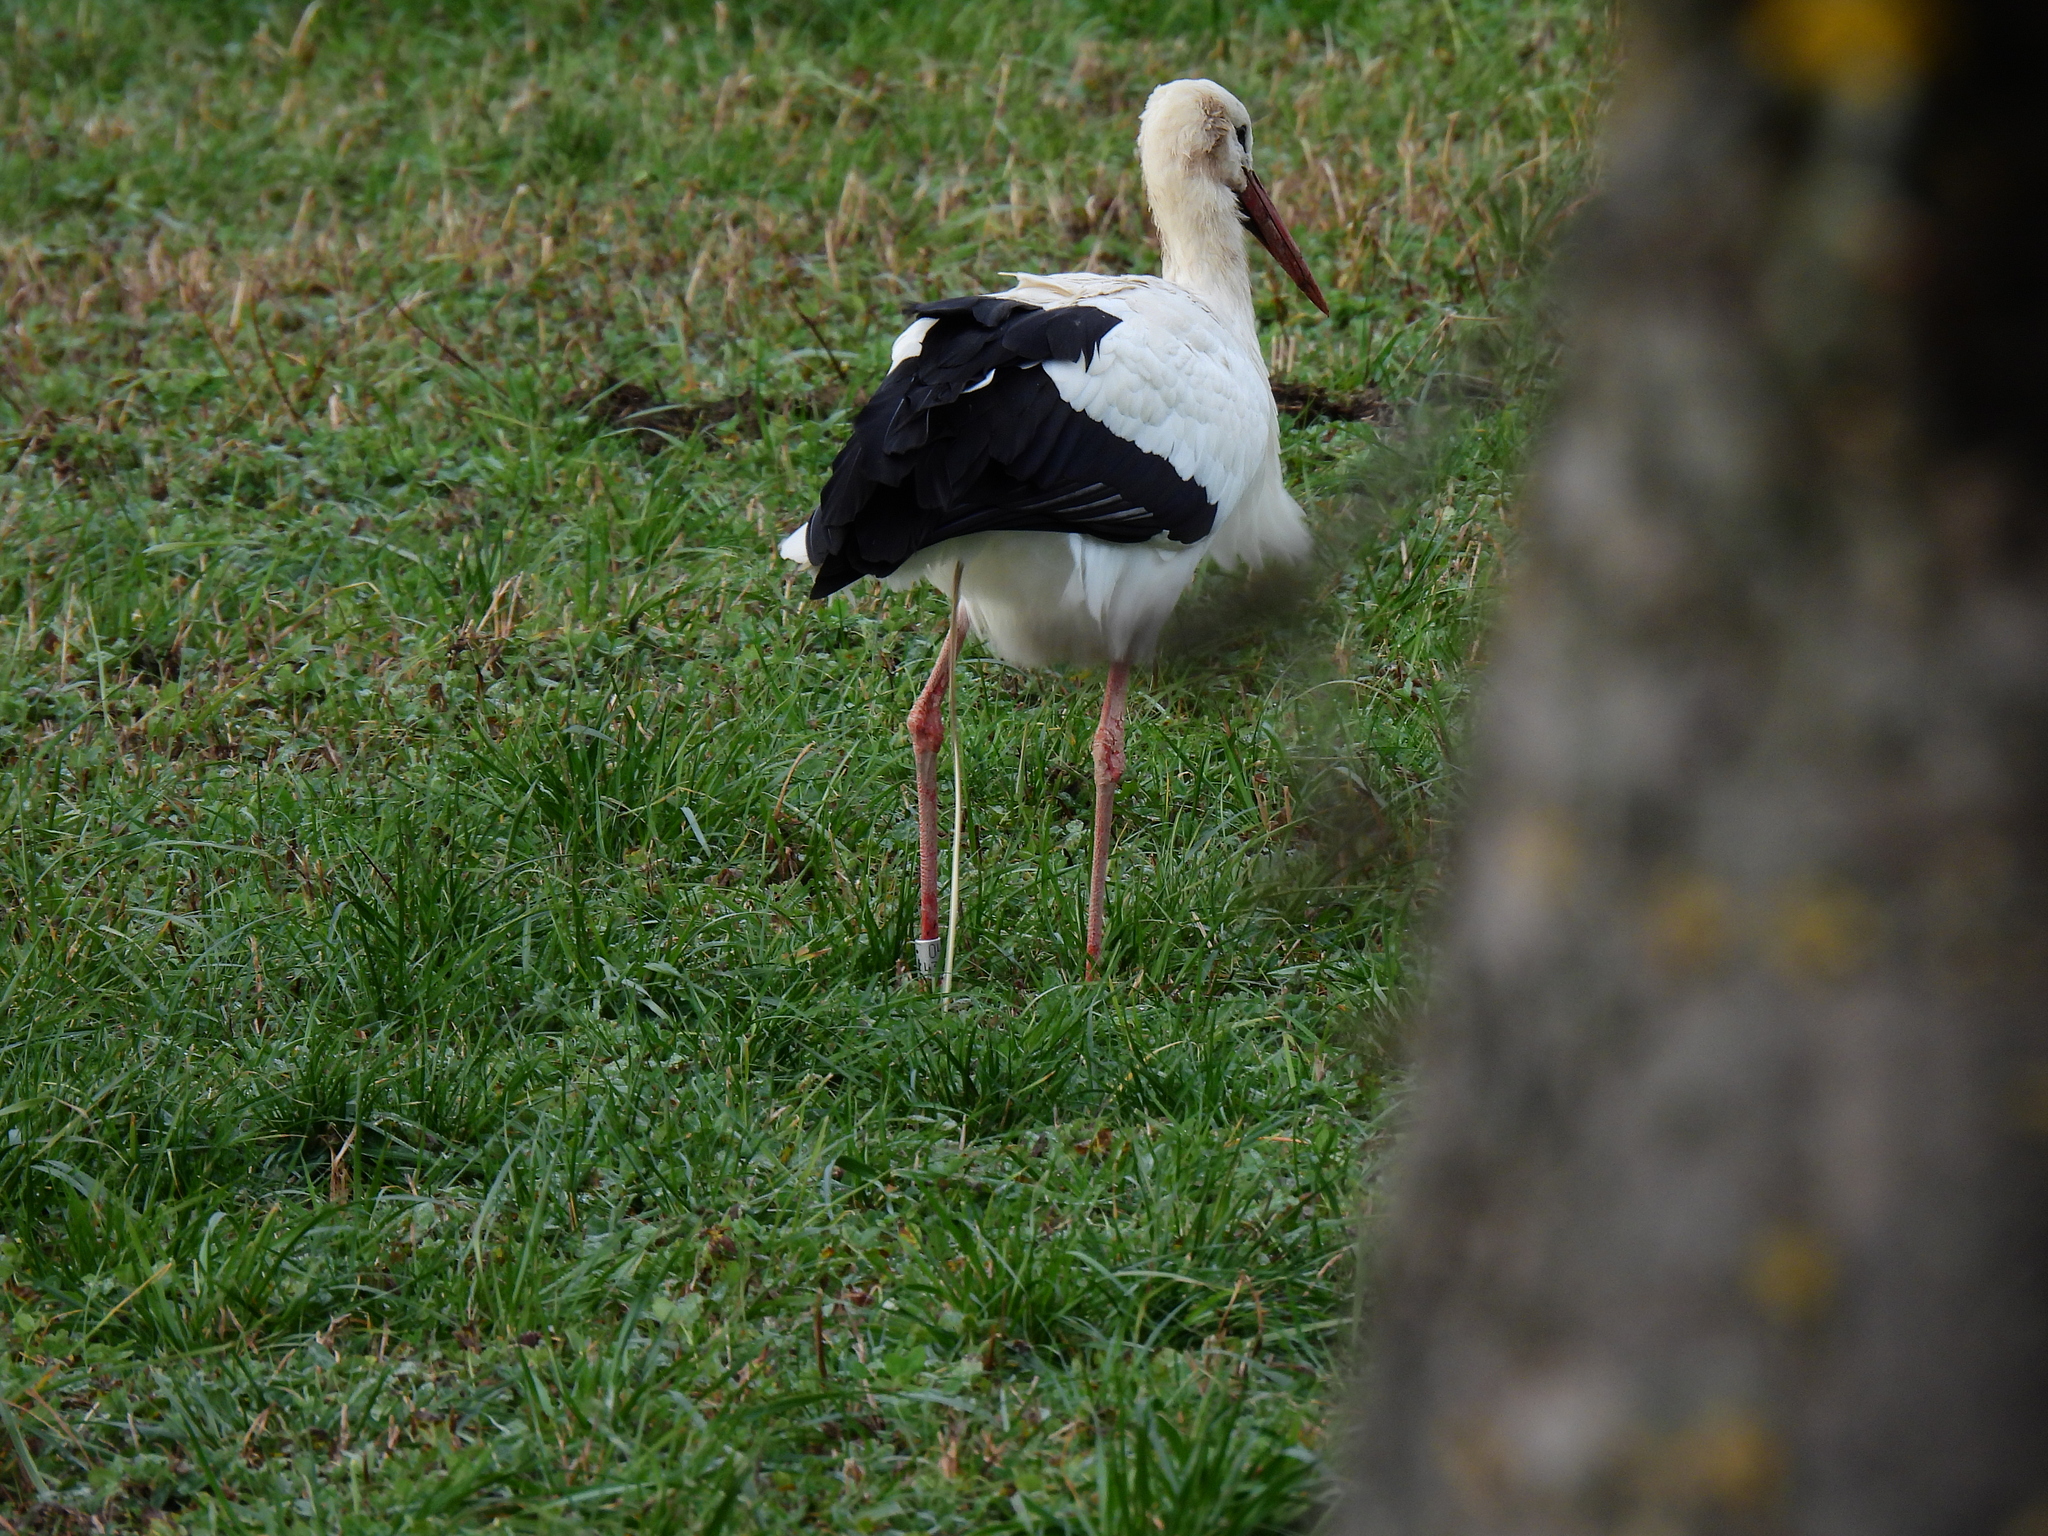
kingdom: Animalia
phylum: Chordata
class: Aves
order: Ciconiiformes
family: Ciconiidae
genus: Ciconia
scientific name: Ciconia ciconia
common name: White stork
